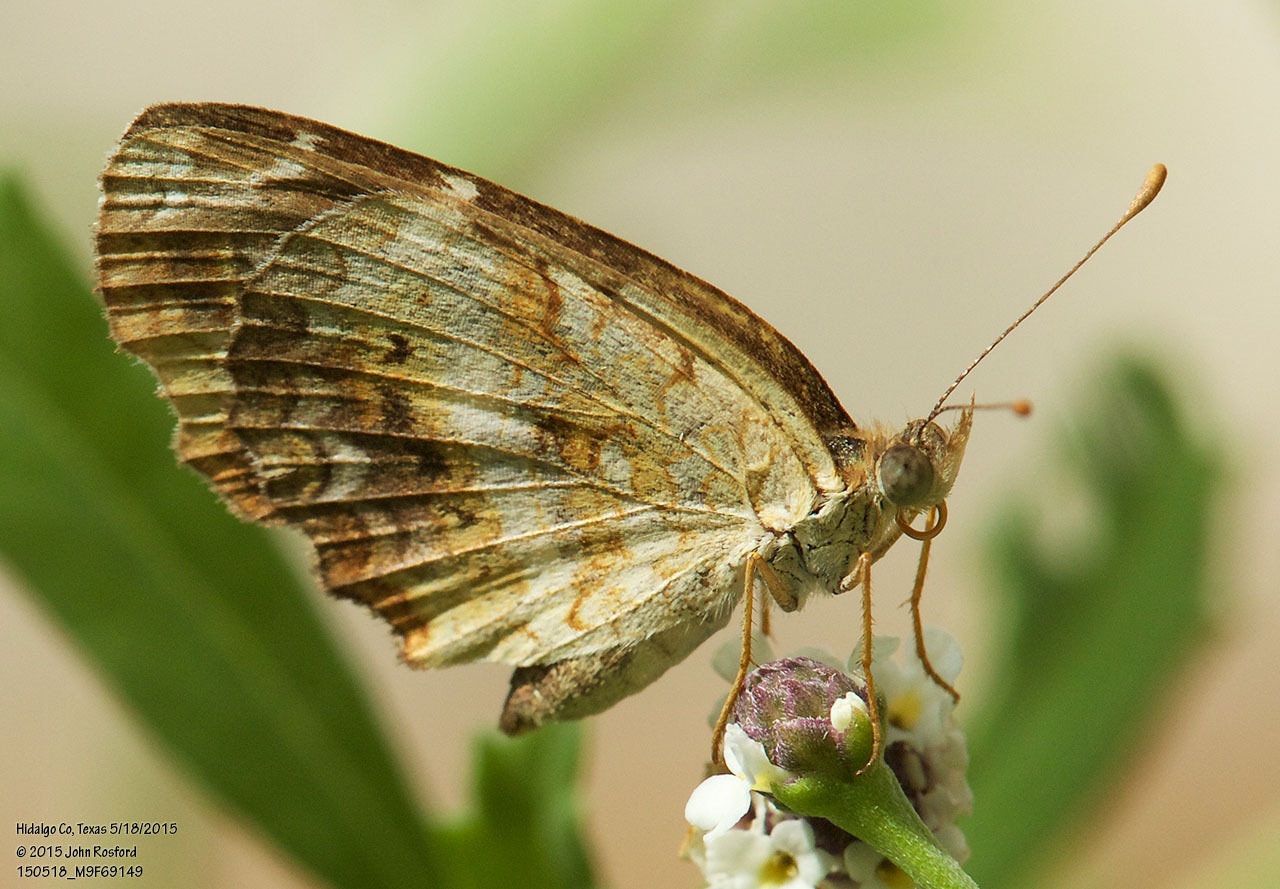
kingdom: Animalia
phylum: Arthropoda
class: Insecta
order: Lepidoptera
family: Nymphalidae
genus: Anthanassa
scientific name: Anthanassa tulcis
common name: Pale-banded crescent
